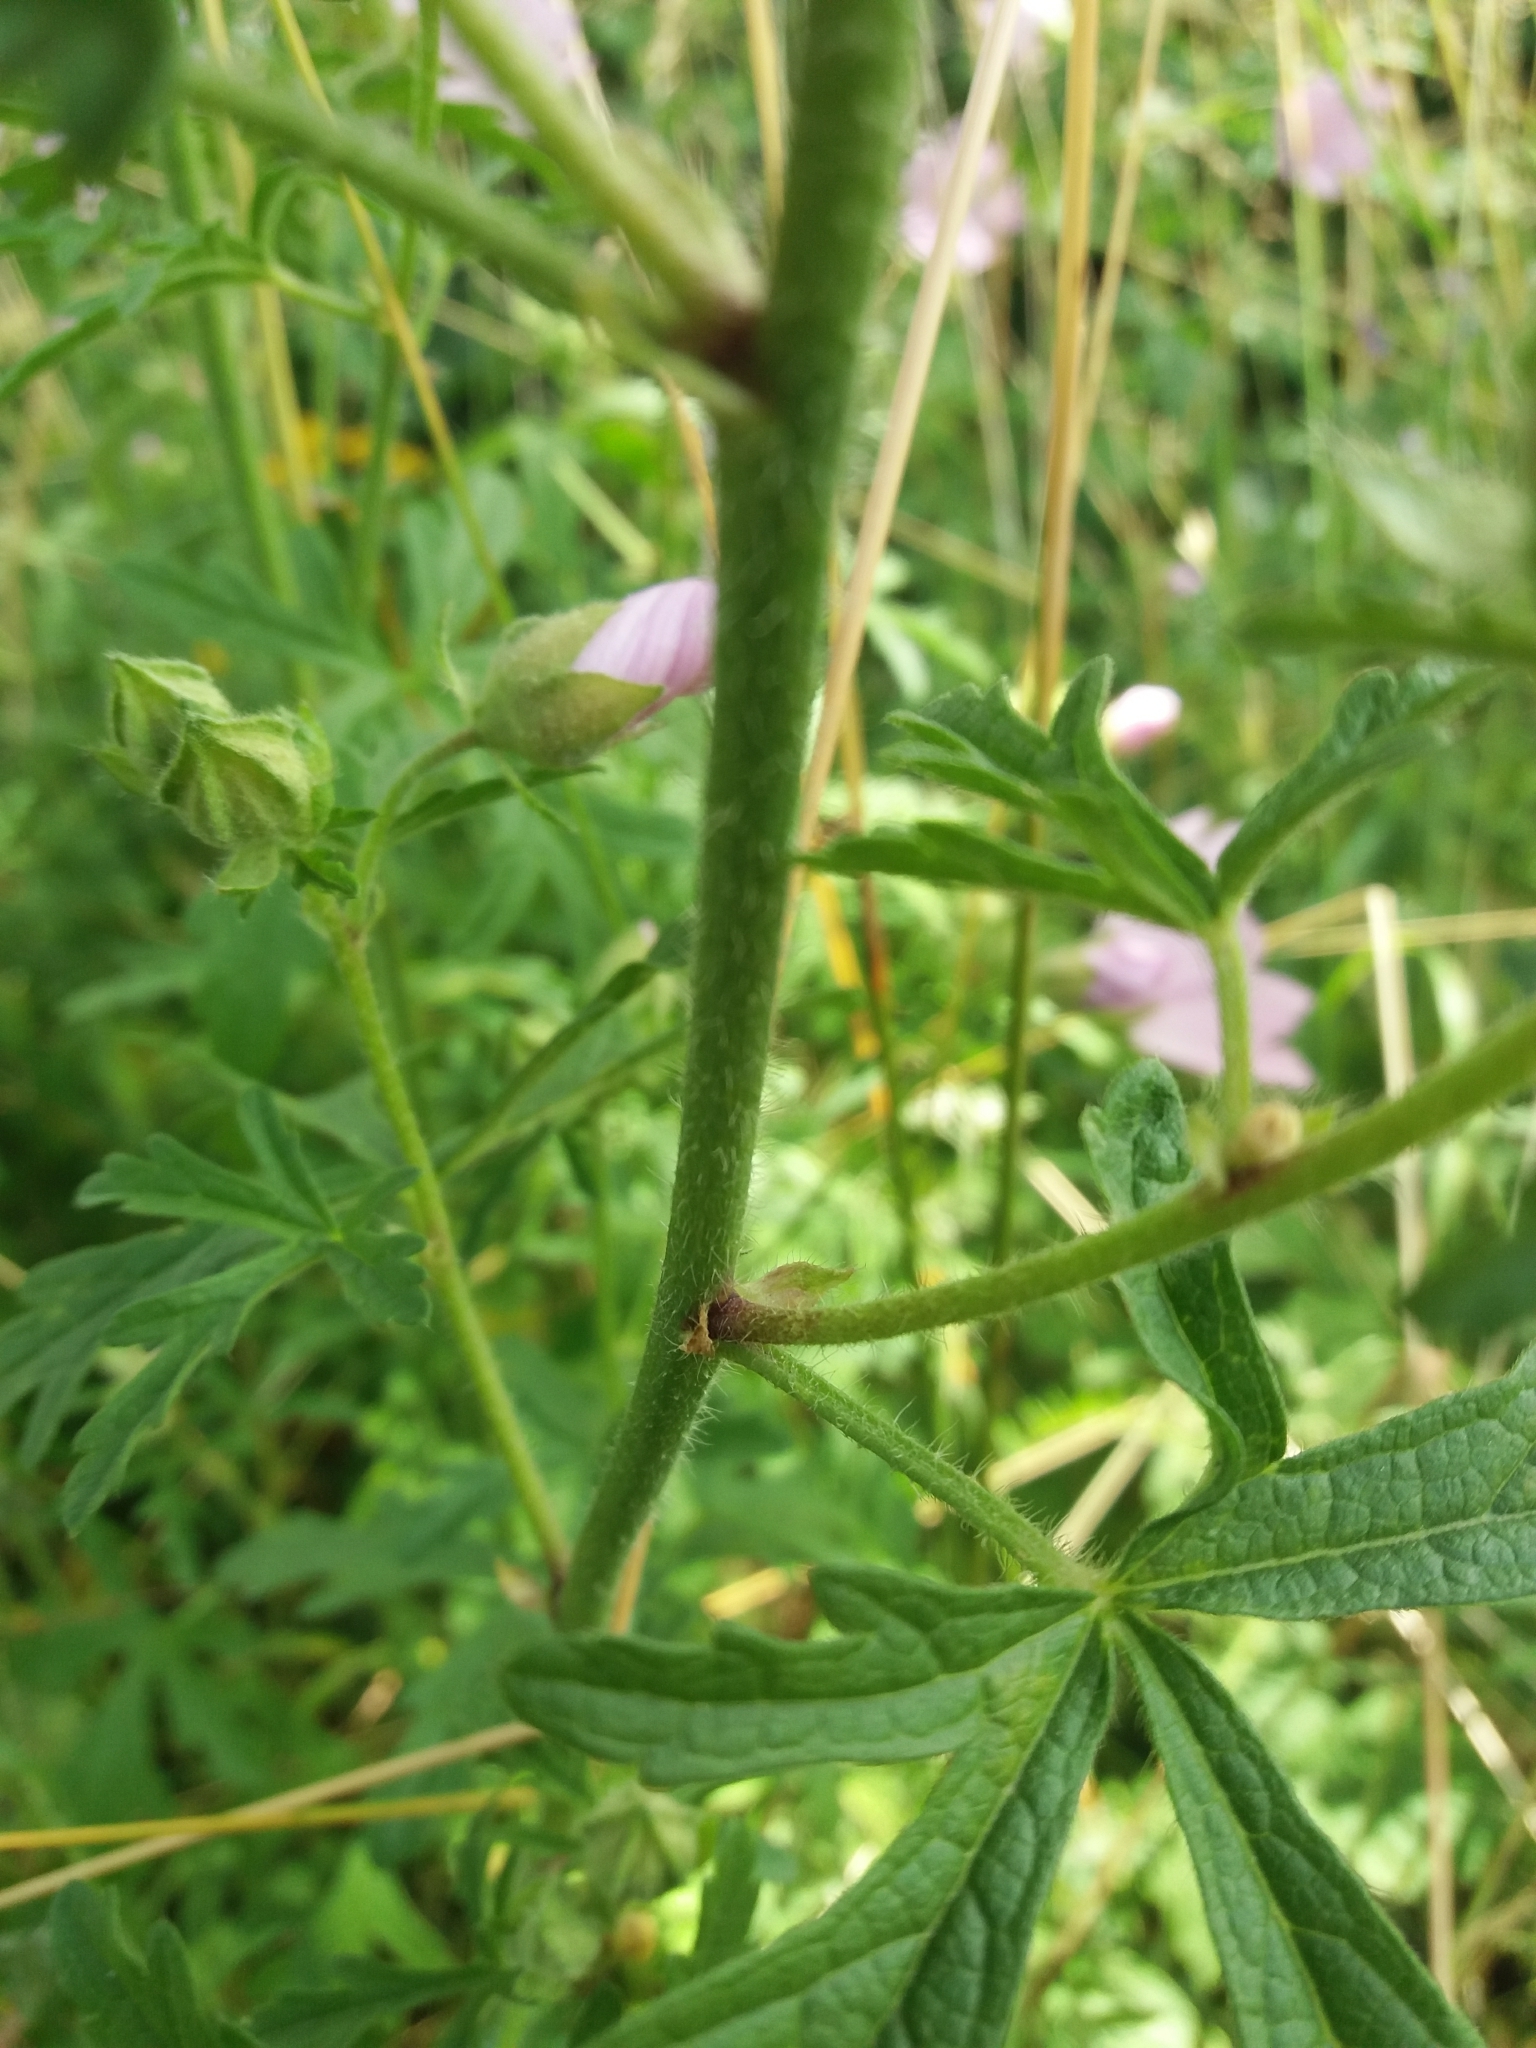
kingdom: Plantae
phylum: Tracheophyta
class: Magnoliopsida
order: Malvales
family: Malvaceae
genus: Malva
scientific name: Malva alcea
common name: Greater musk-mallow
